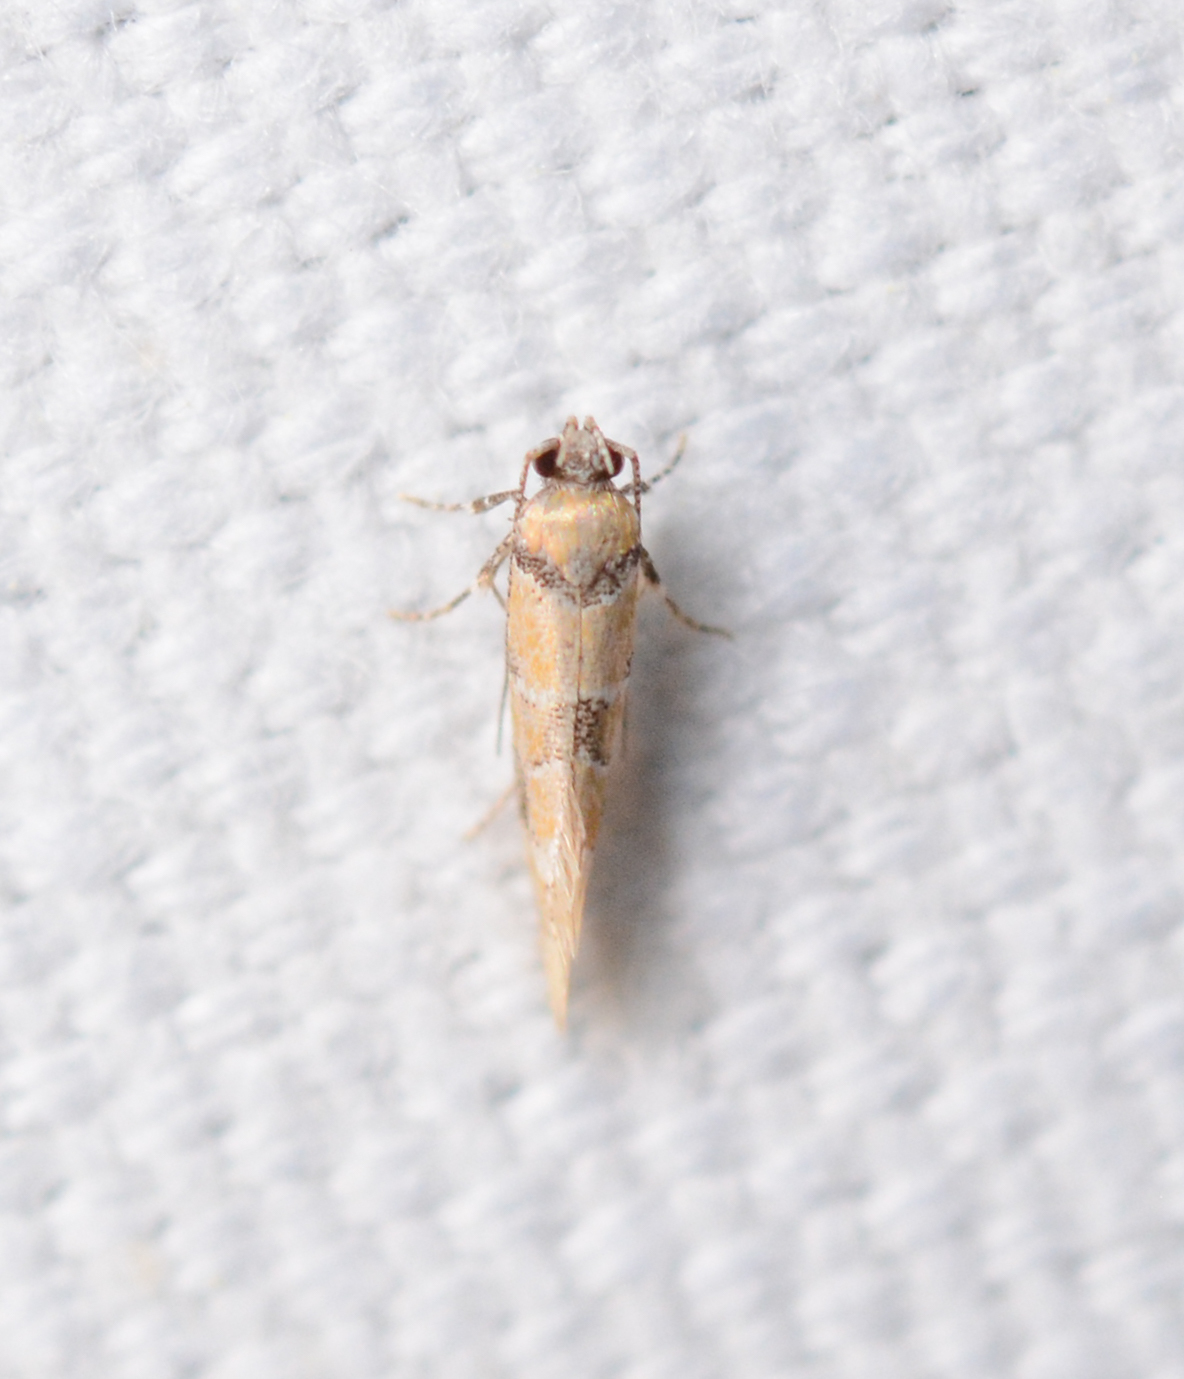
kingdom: Animalia
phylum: Arthropoda
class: Insecta
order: Lepidoptera
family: Oecophoridae
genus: Decantha
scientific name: Decantha borkhausenii
